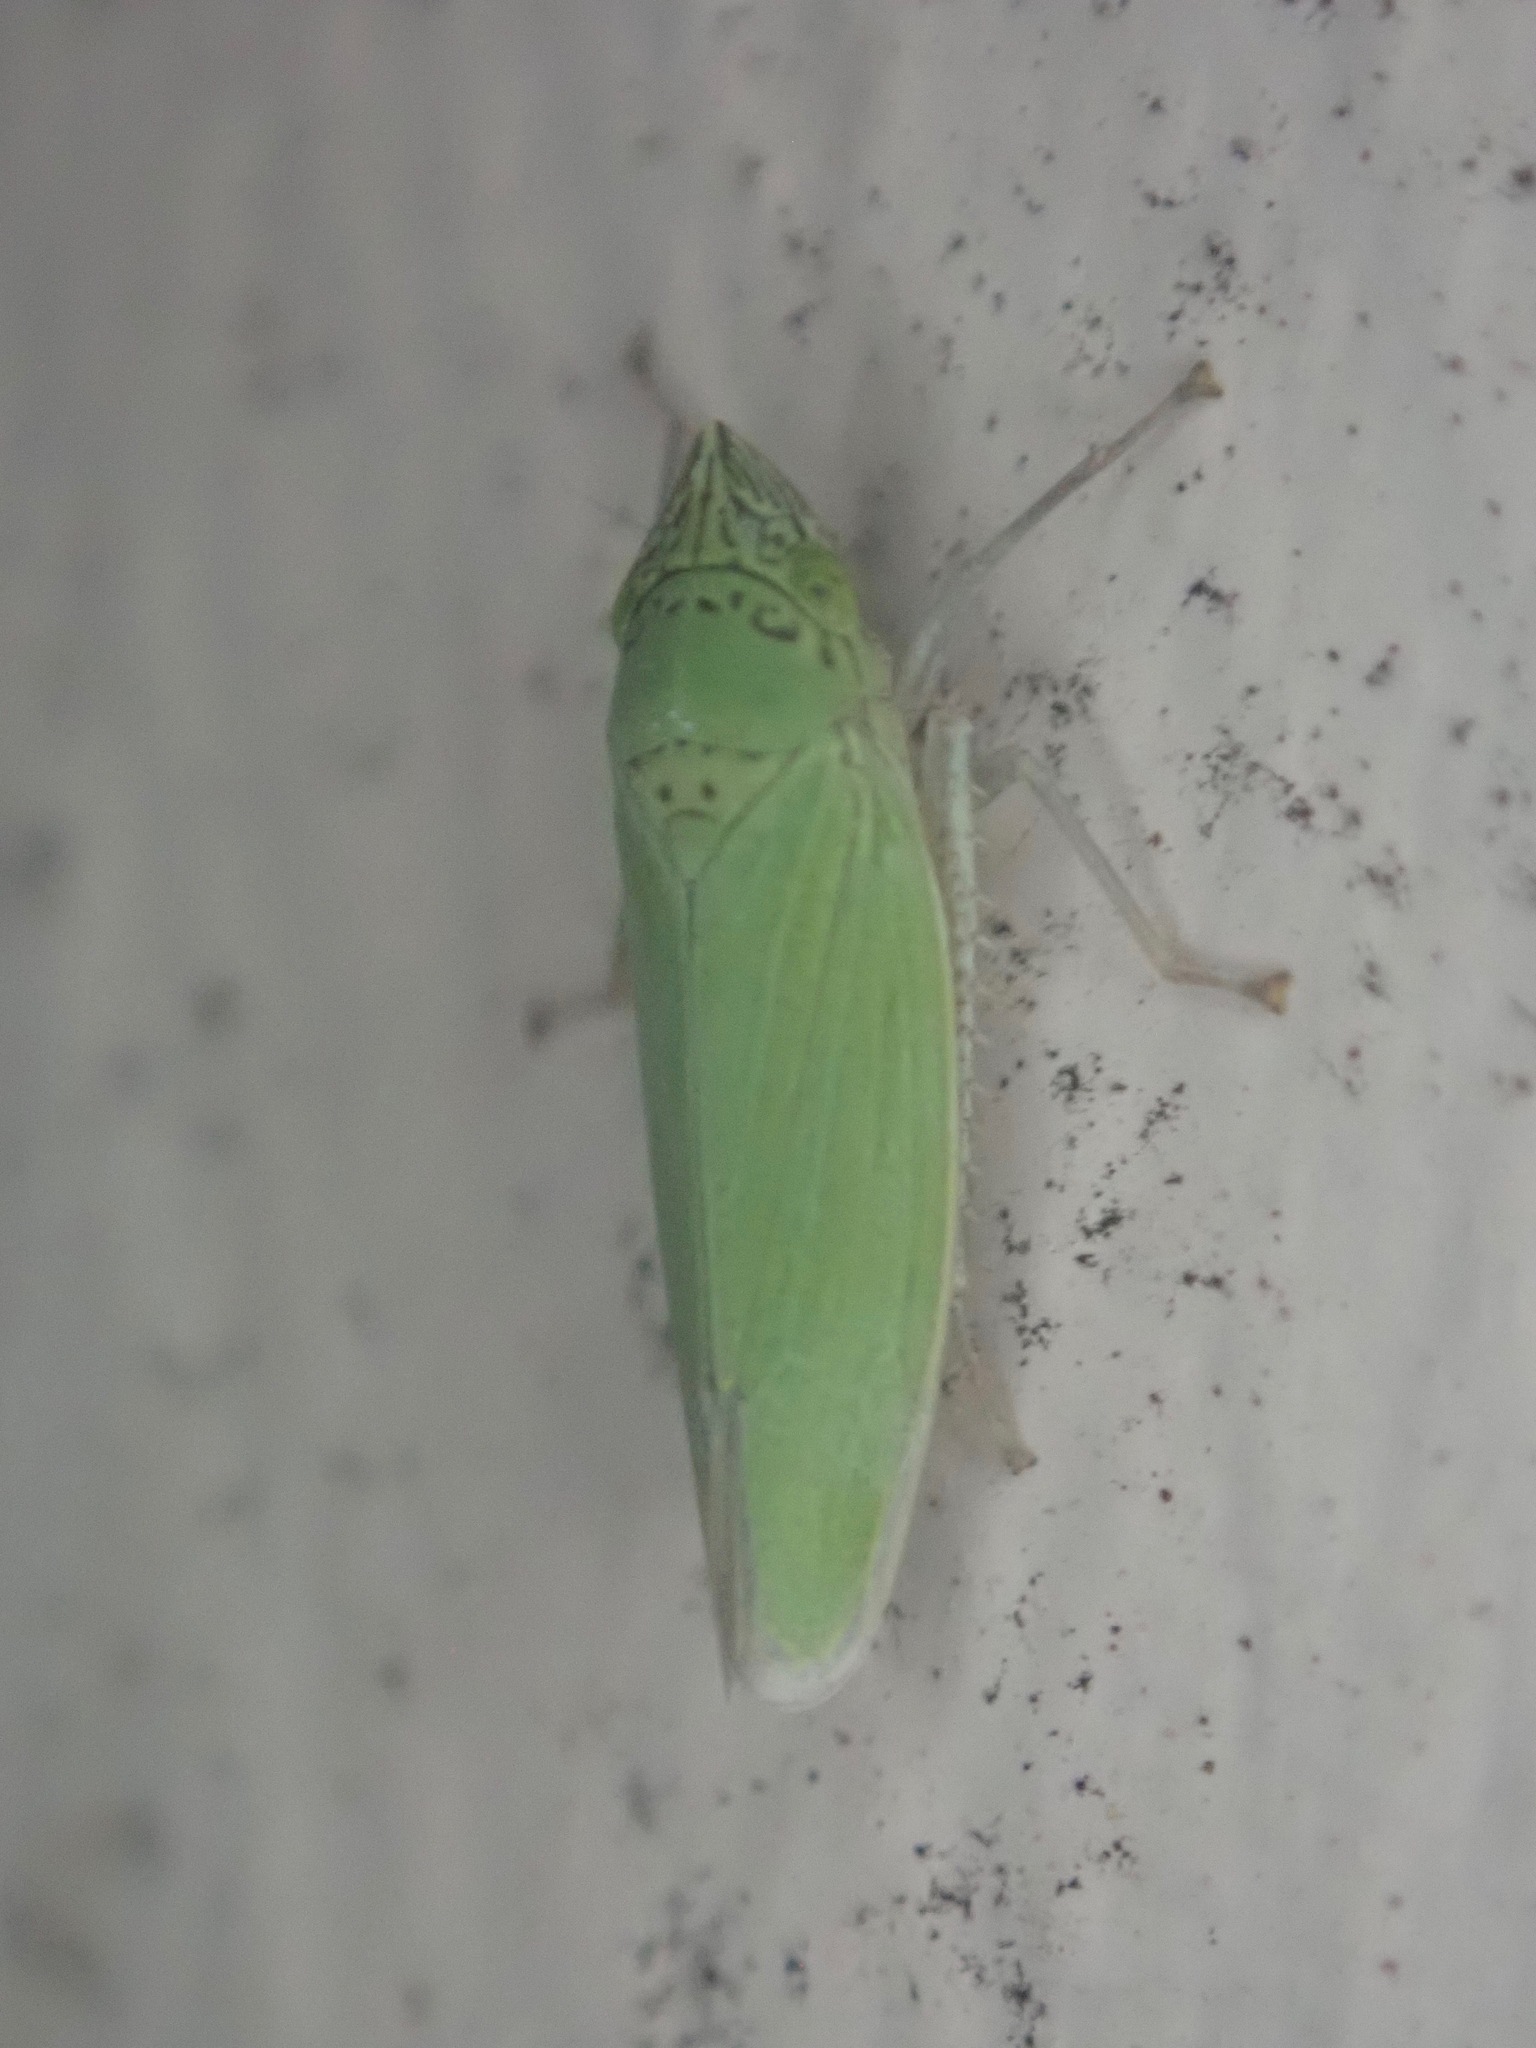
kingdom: Animalia
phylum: Arthropoda
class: Insecta
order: Hemiptera
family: Cicadellidae
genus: Draeculacephala
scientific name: Draeculacephala inscripta
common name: Leafhopper
